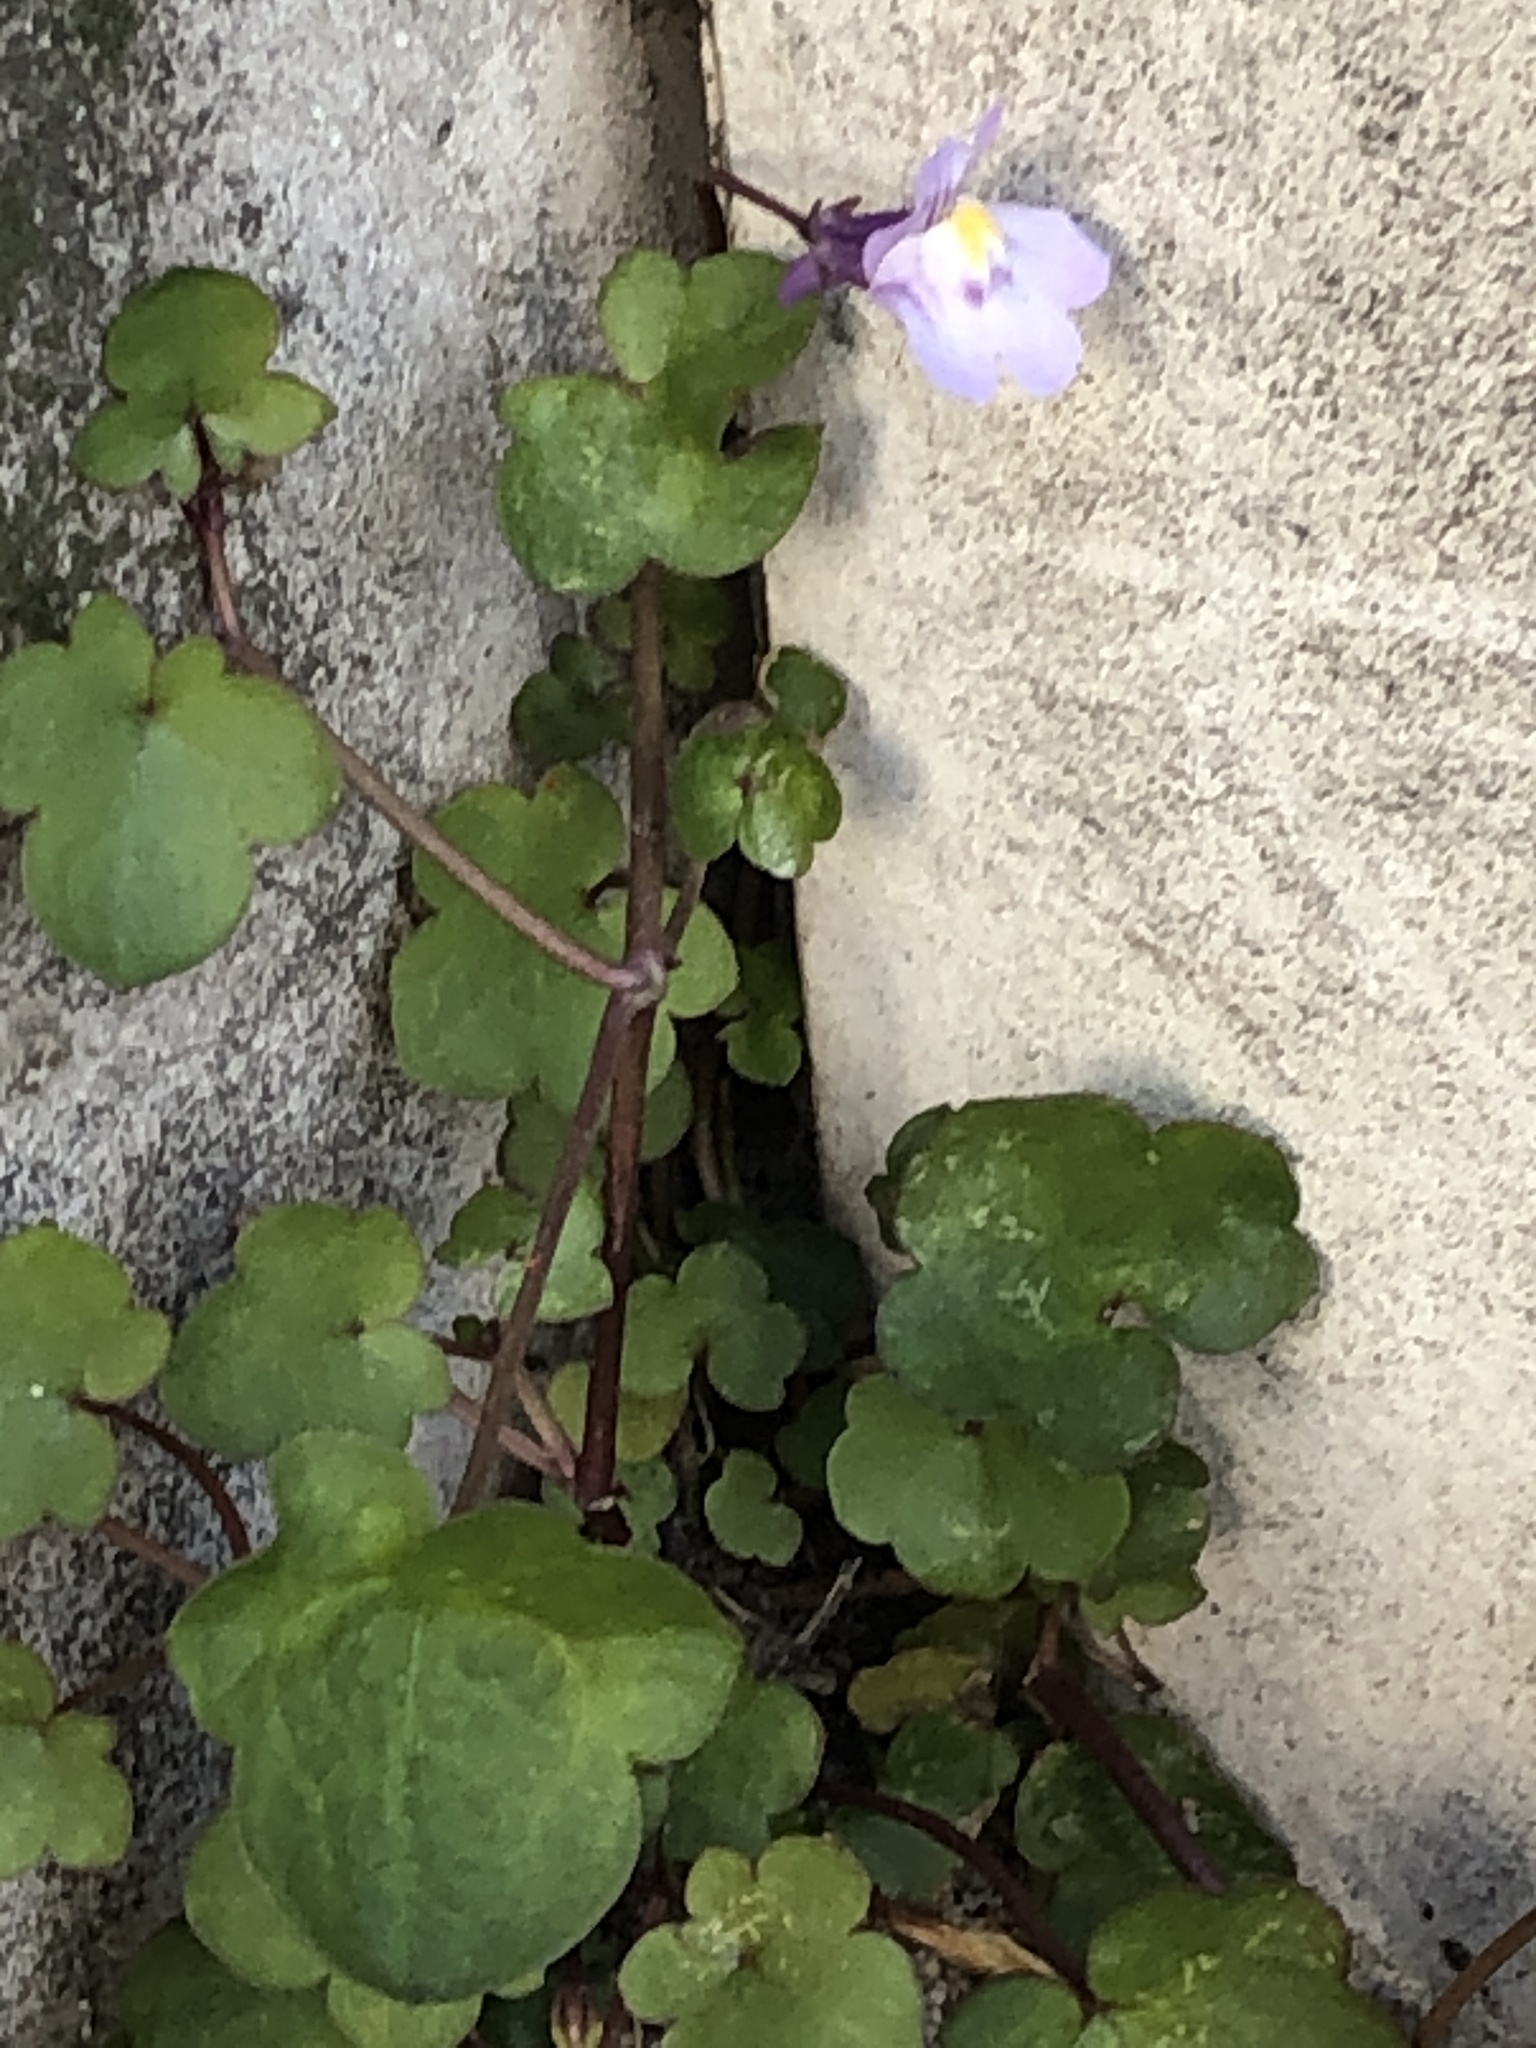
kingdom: Plantae
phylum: Tracheophyta
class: Magnoliopsida
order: Lamiales
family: Plantaginaceae
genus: Cymbalaria
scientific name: Cymbalaria muralis
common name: Ivy-leaved toadflax
